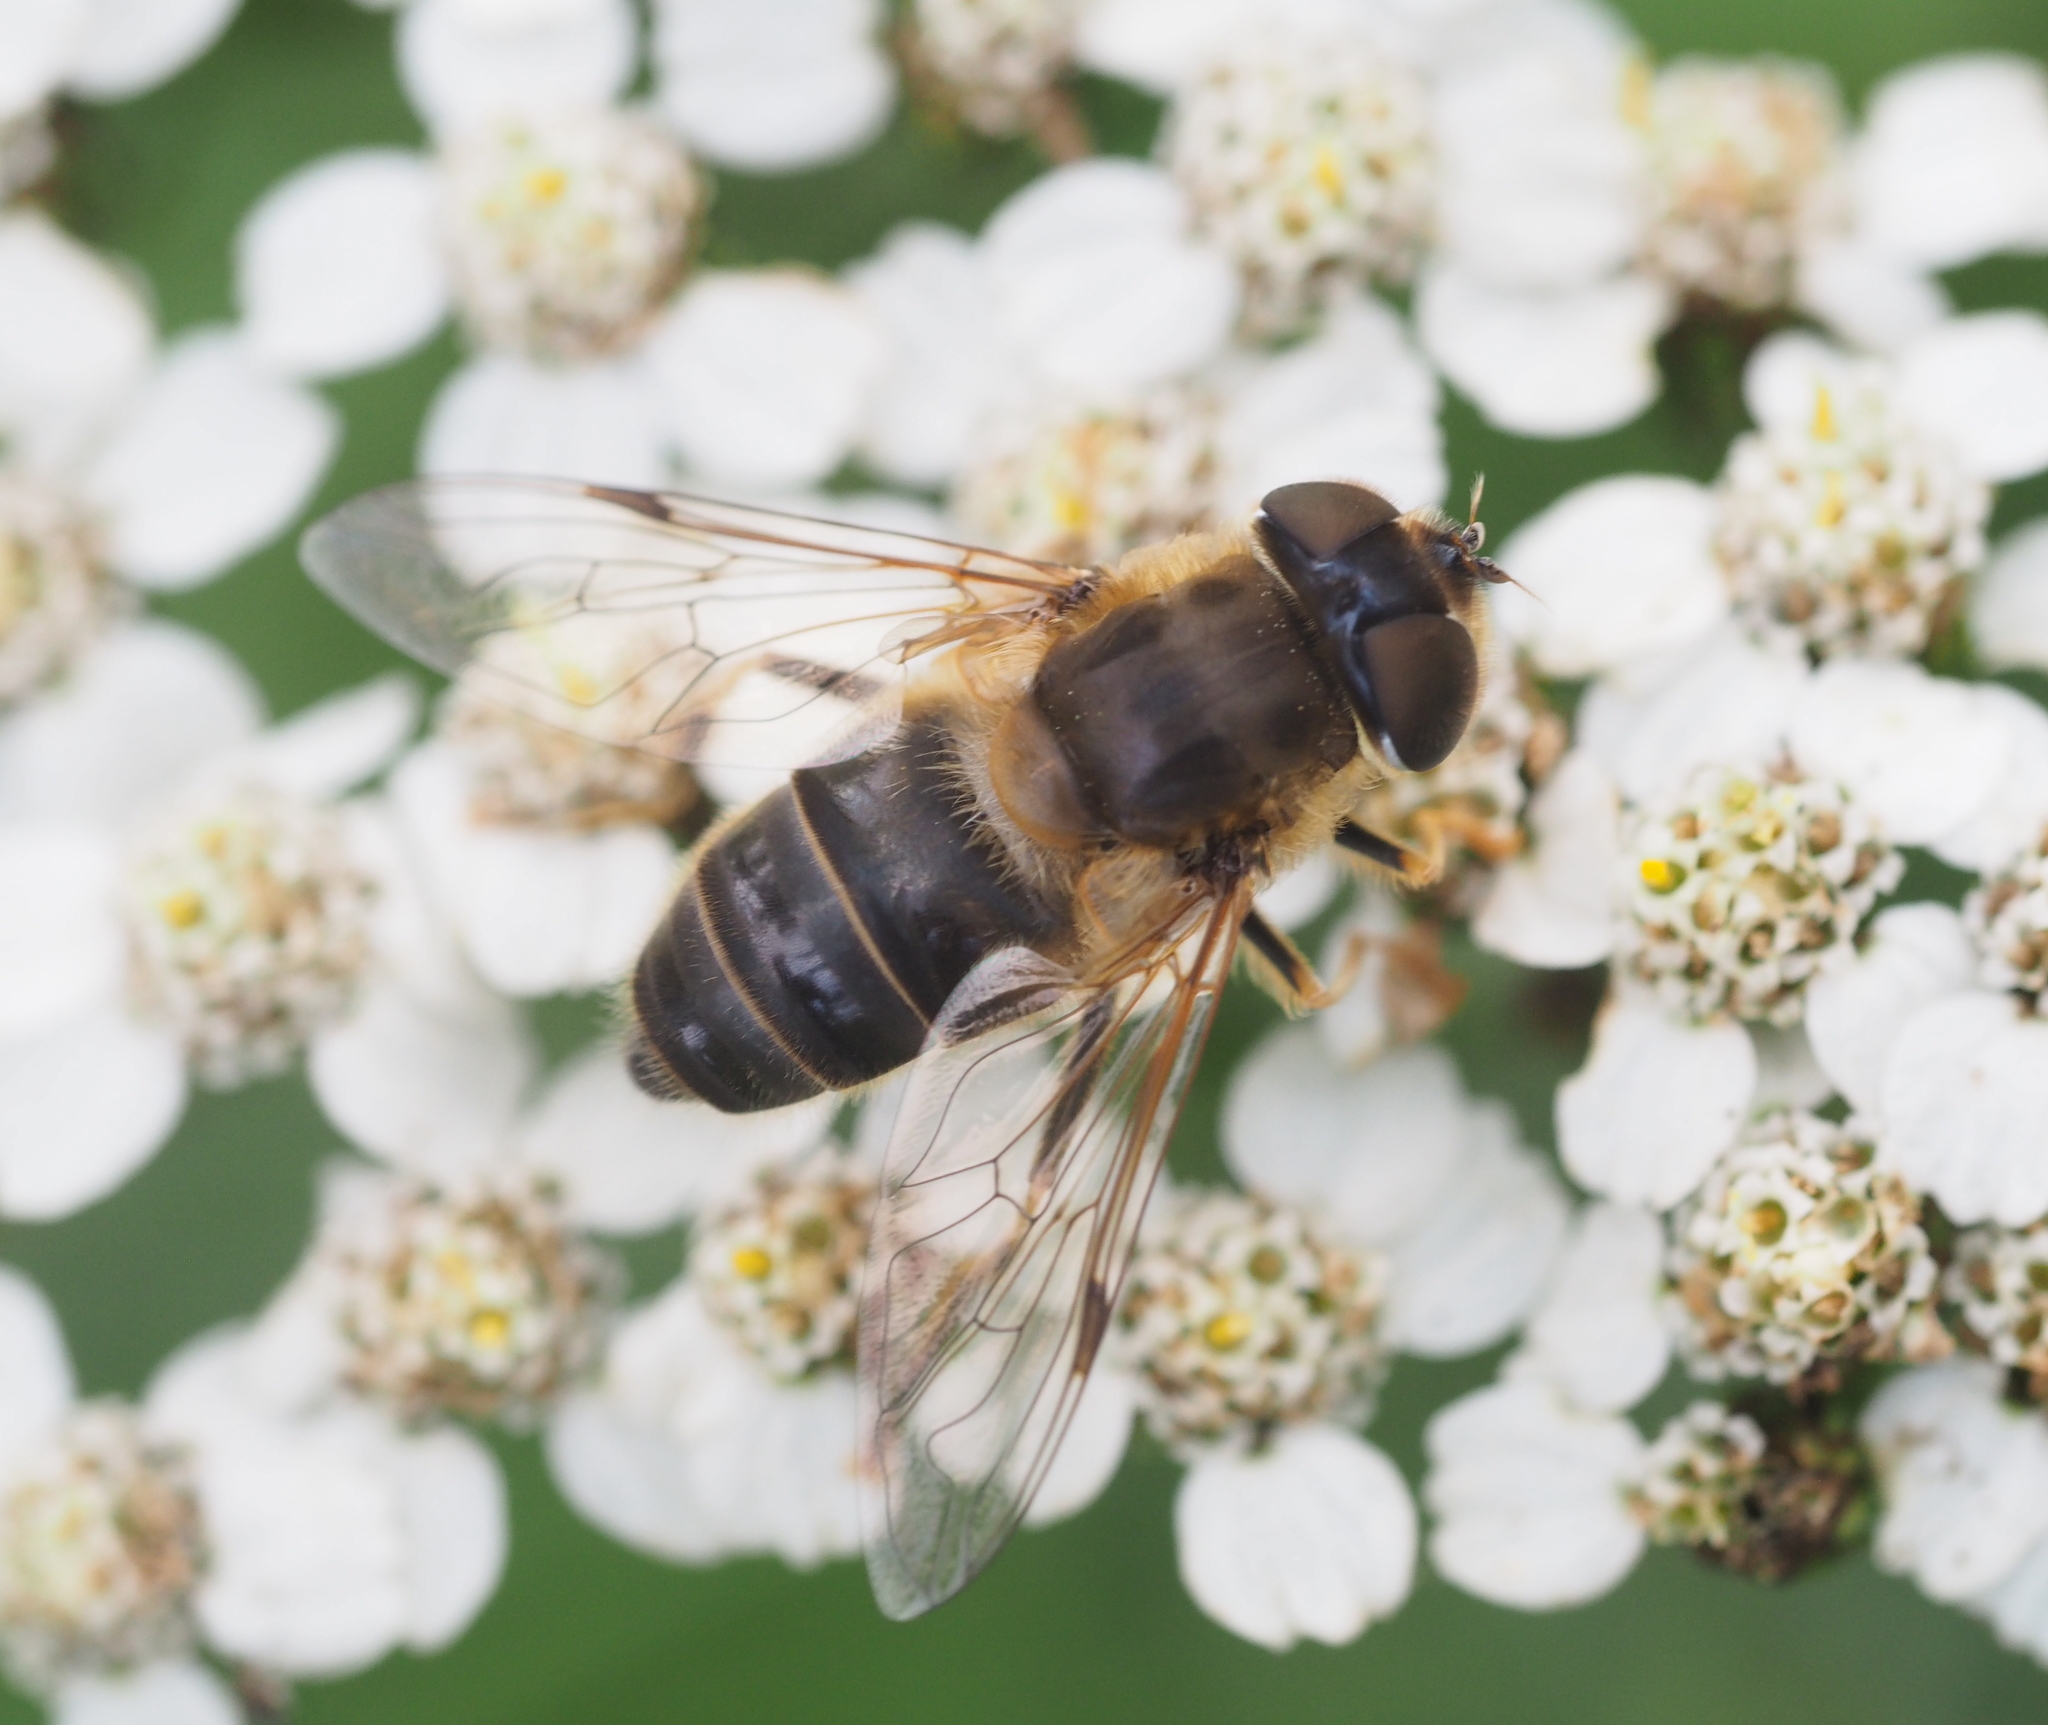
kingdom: Animalia
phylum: Arthropoda
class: Insecta
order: Diptera
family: Syrphidae
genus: Eristalis
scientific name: Eristalis pertinax
